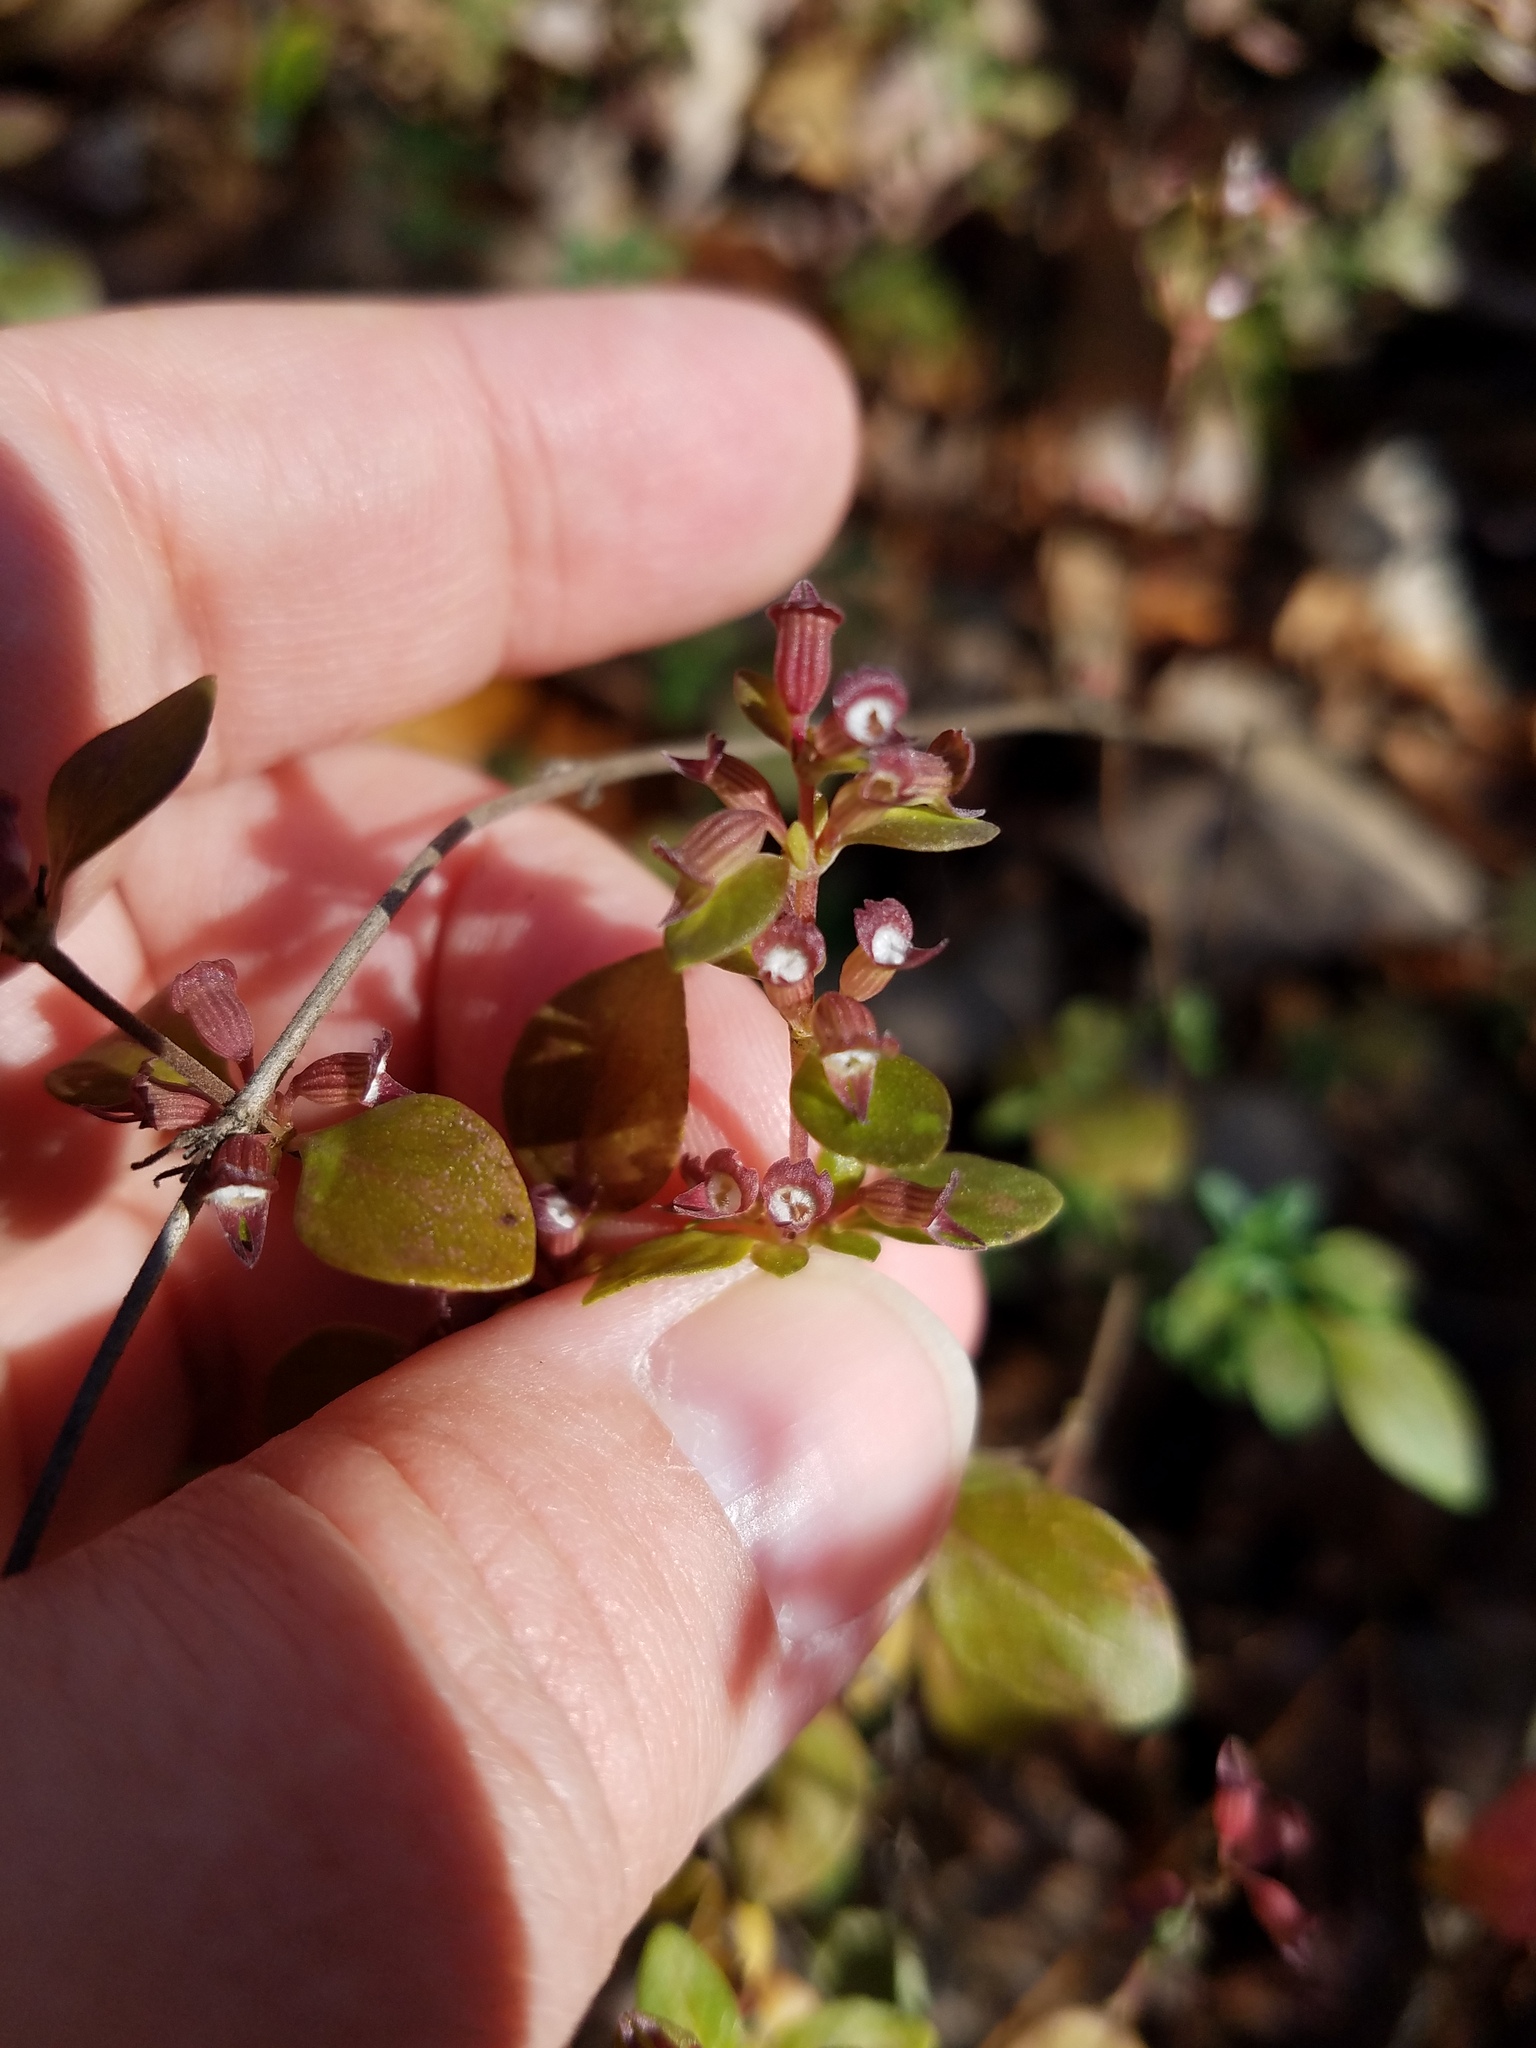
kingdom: Plantae
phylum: Tracheophyta
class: Magnoliopsida
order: Lamiales
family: Lamiaceae
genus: Clinopodium
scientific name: Clinopodium carolinianum
